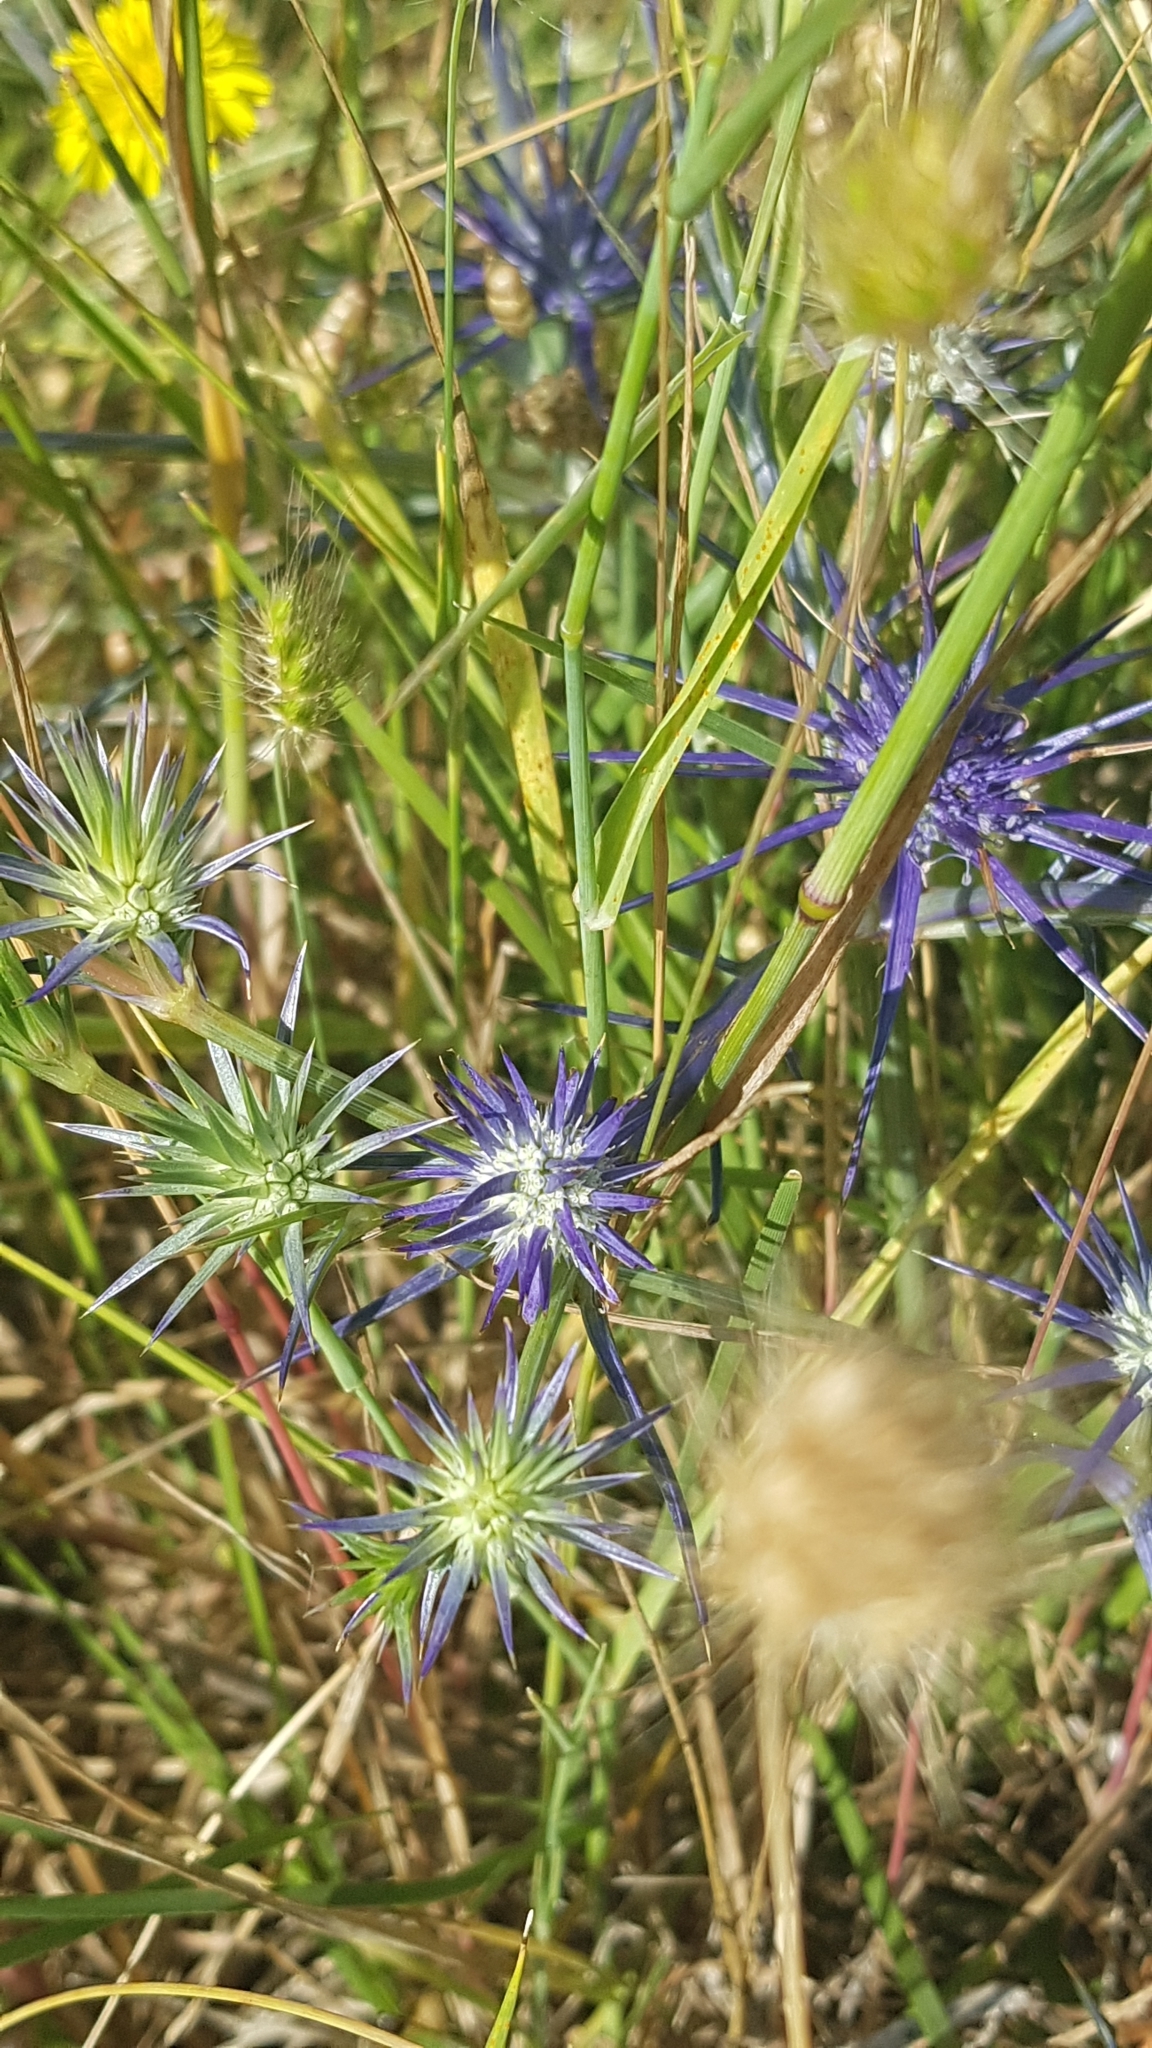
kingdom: Plantae
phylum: Tracheophyta
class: Magnoliopsida
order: Apiales
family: Apiaceae
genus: Eryngium
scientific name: Eryngium ovinum
